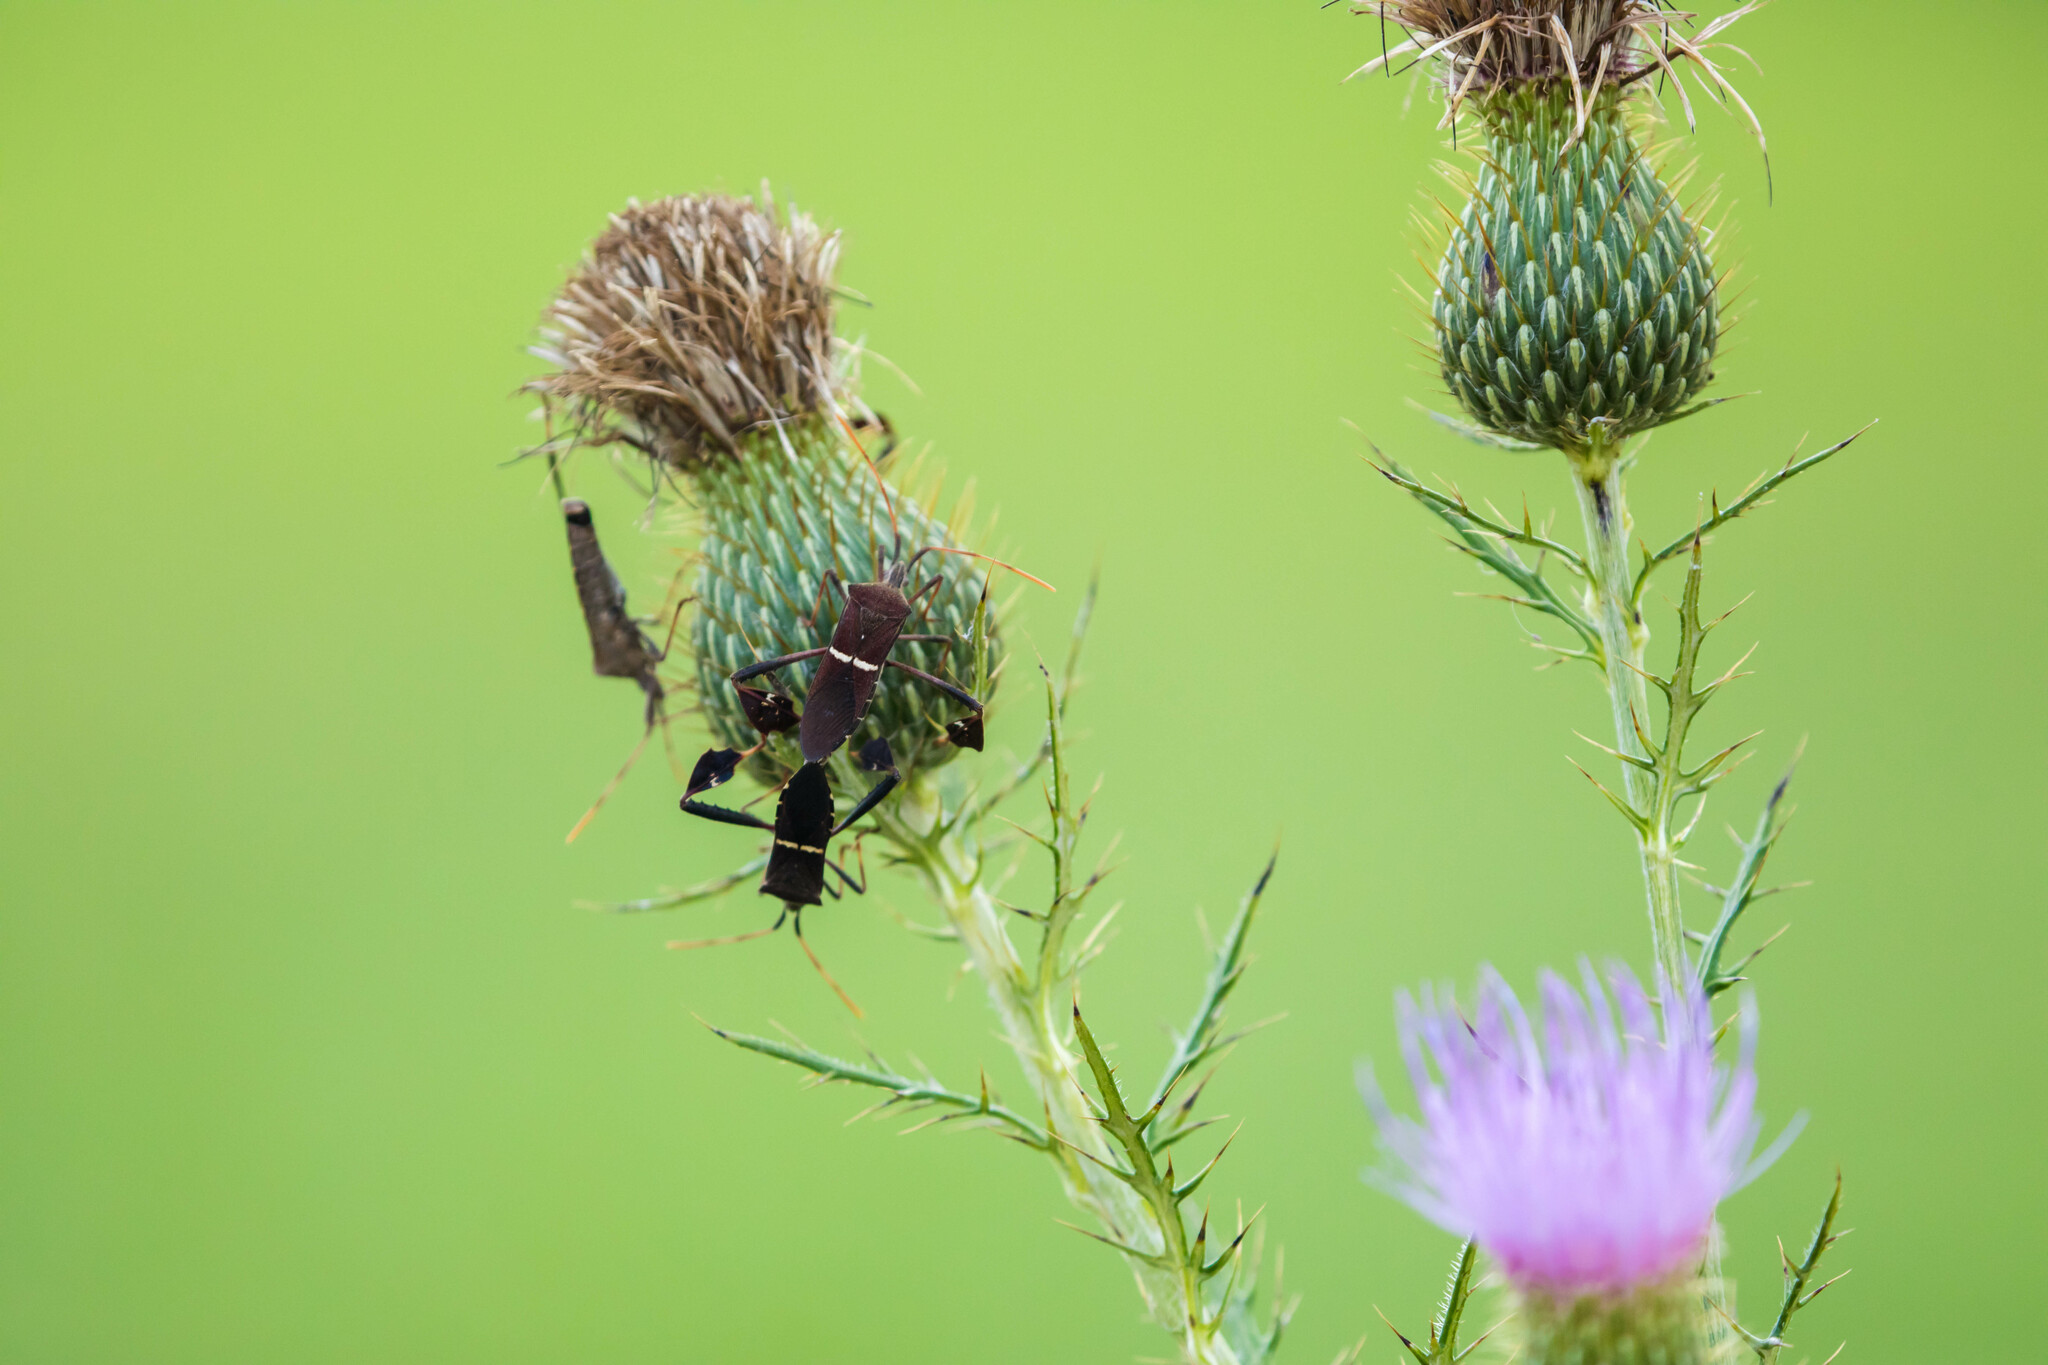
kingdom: Animalia
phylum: Arthropoda
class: Insecta
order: Hemiptera
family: Coreidae
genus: Leptoglossus
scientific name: Leptoglossus phyllopus
